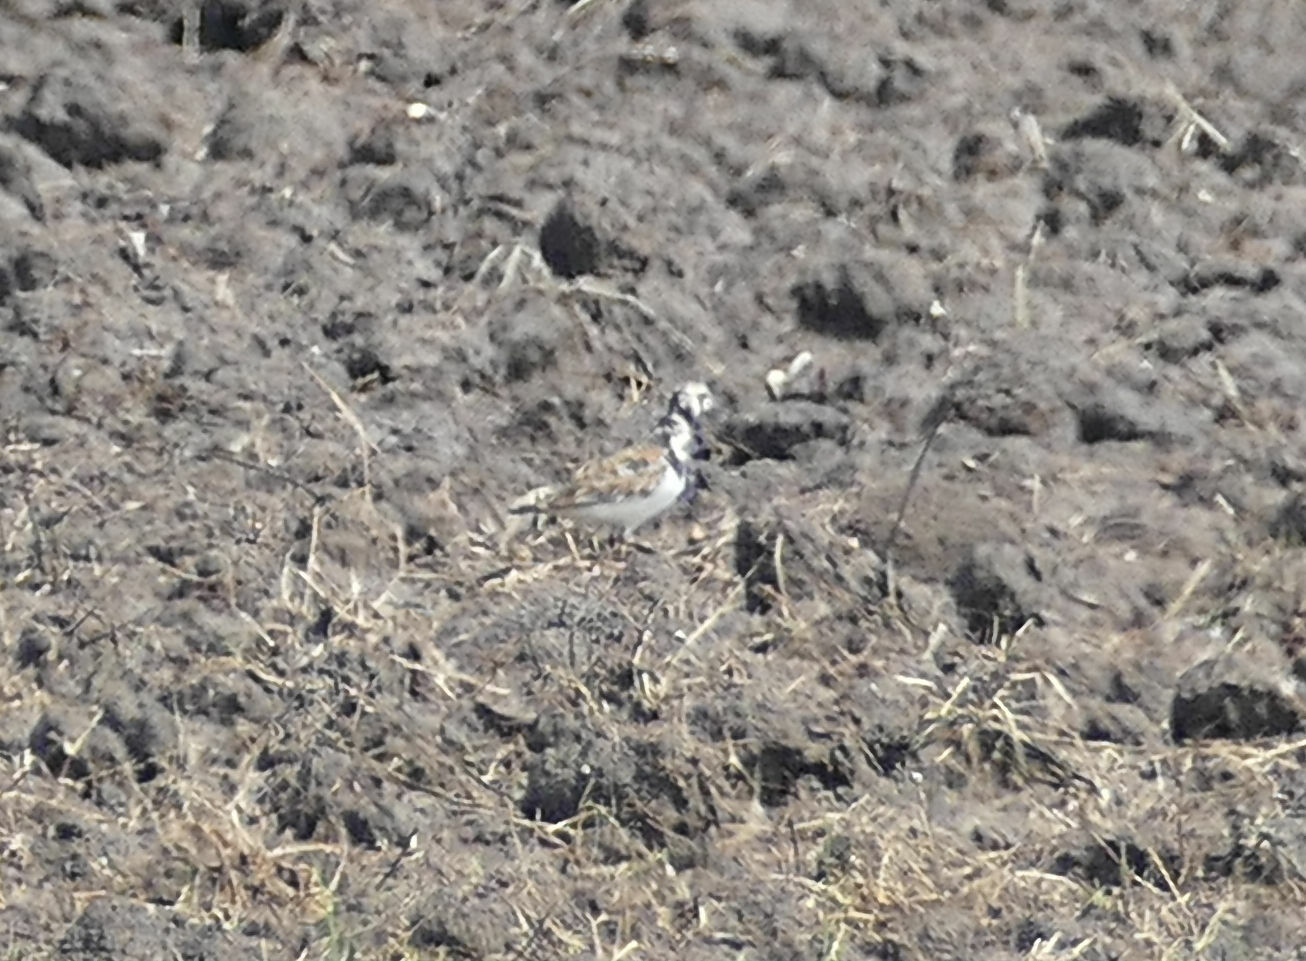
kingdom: Animalia
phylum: Chordata
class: Aves
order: Charadriiformes
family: Scolopacidae
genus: Arenaria
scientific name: Arenaria interpres
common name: Ruddy turnstone
